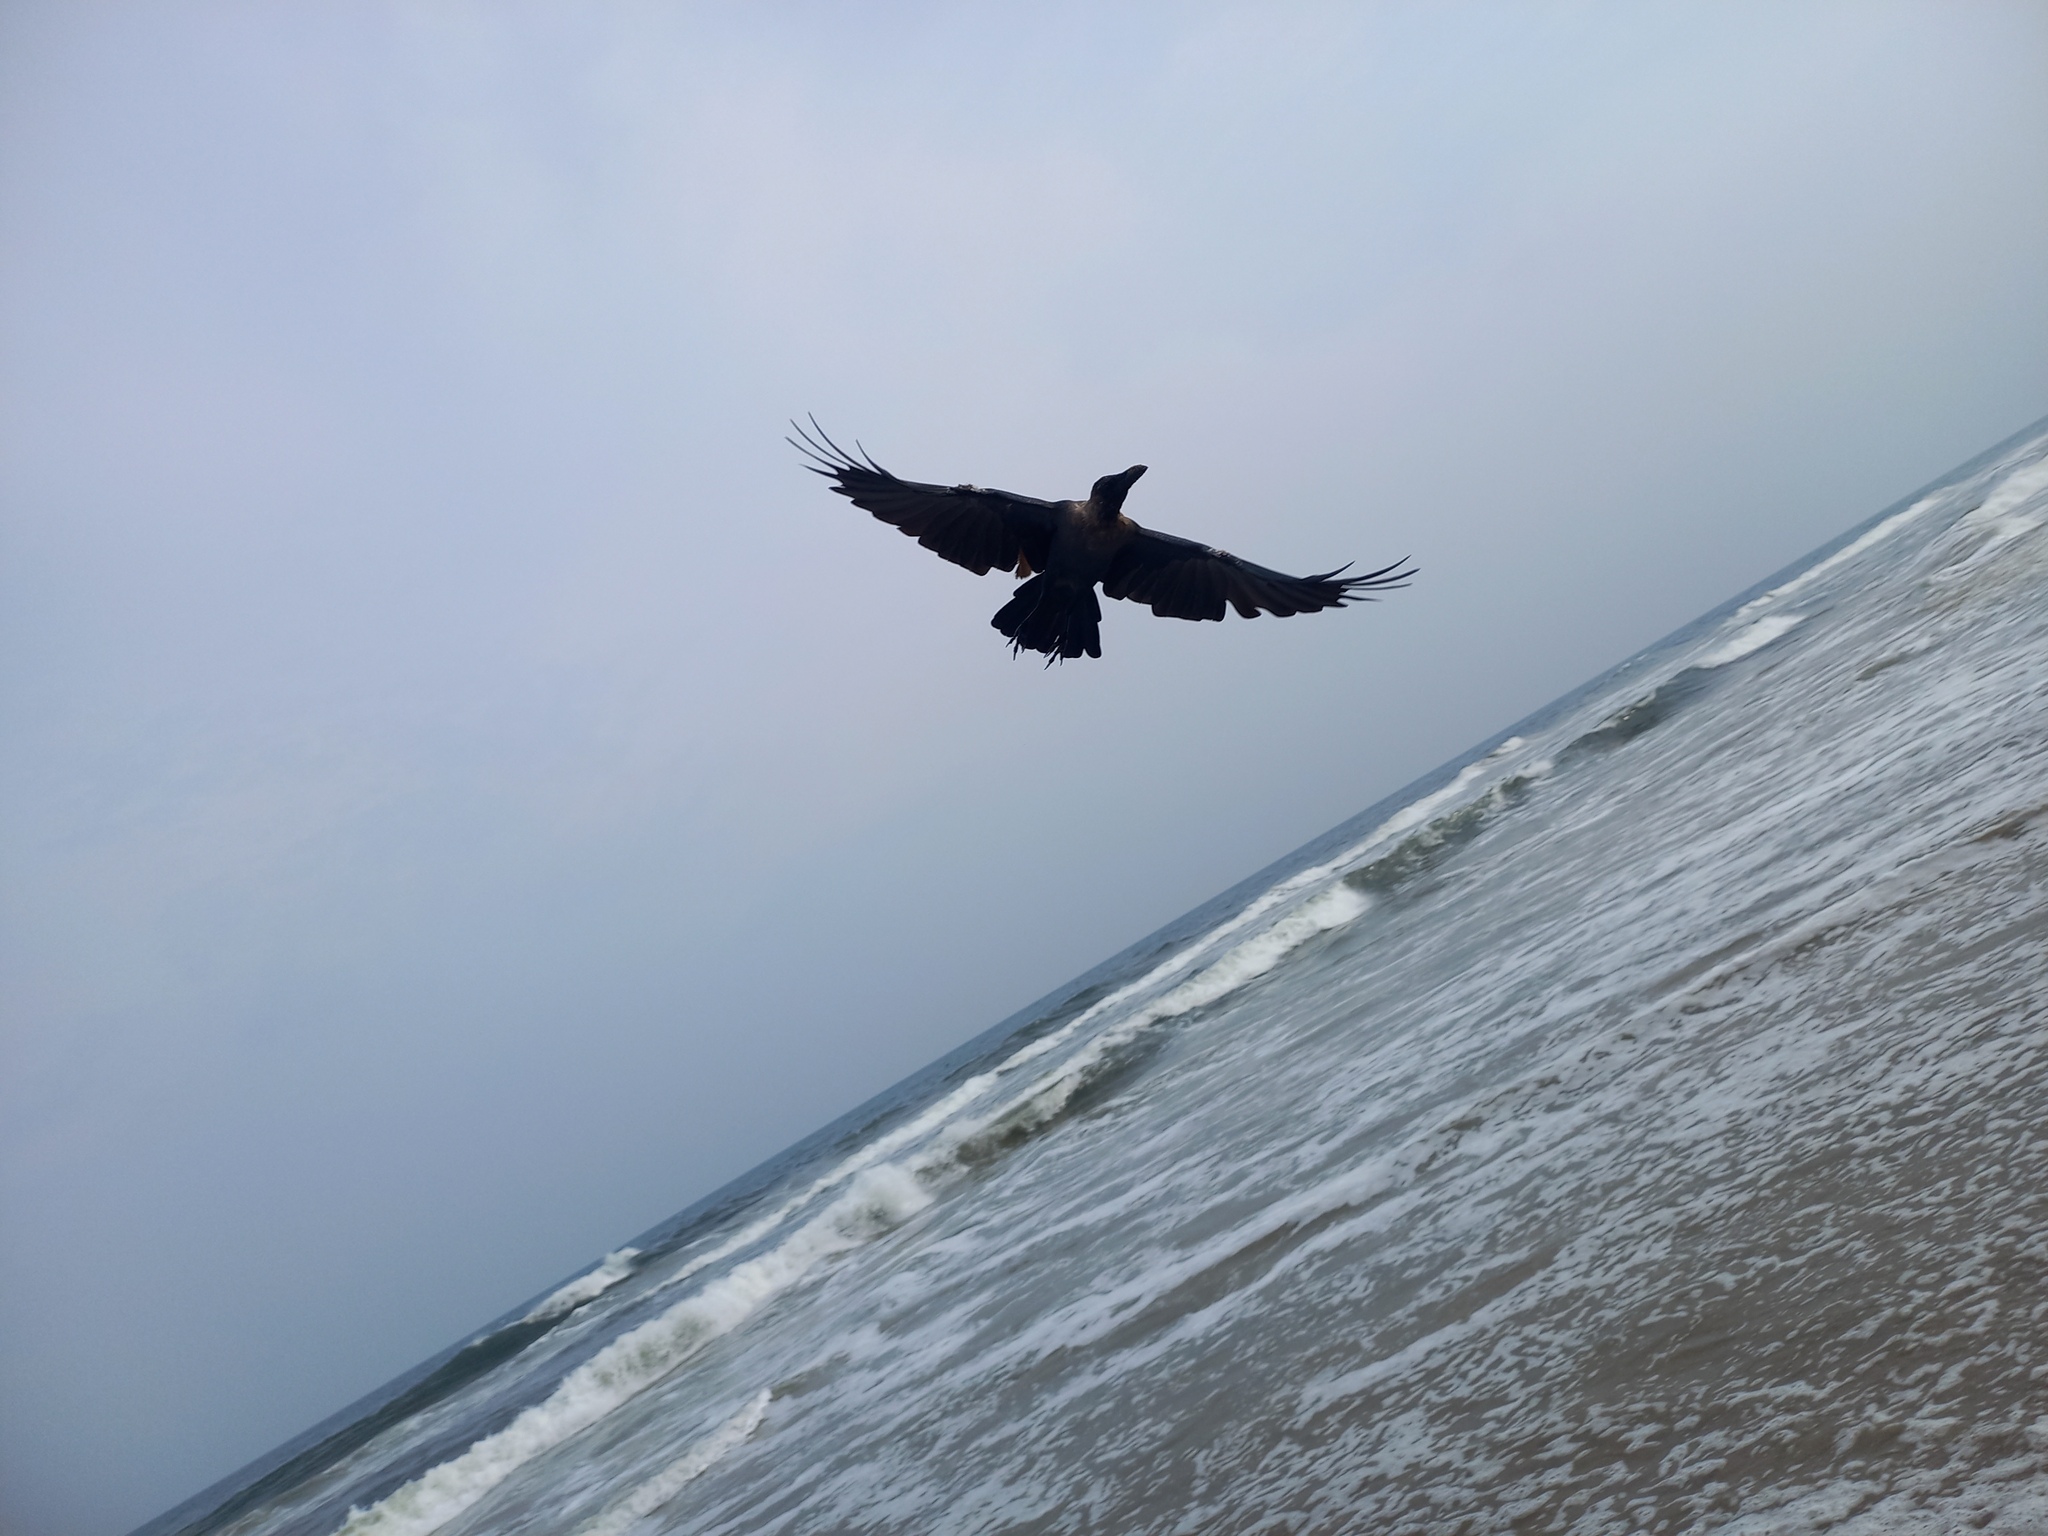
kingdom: Animalia
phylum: Chordata
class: Aves
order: Passeriformes
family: Corvidae
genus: Corvus
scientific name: Corvus splendens
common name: House crow
